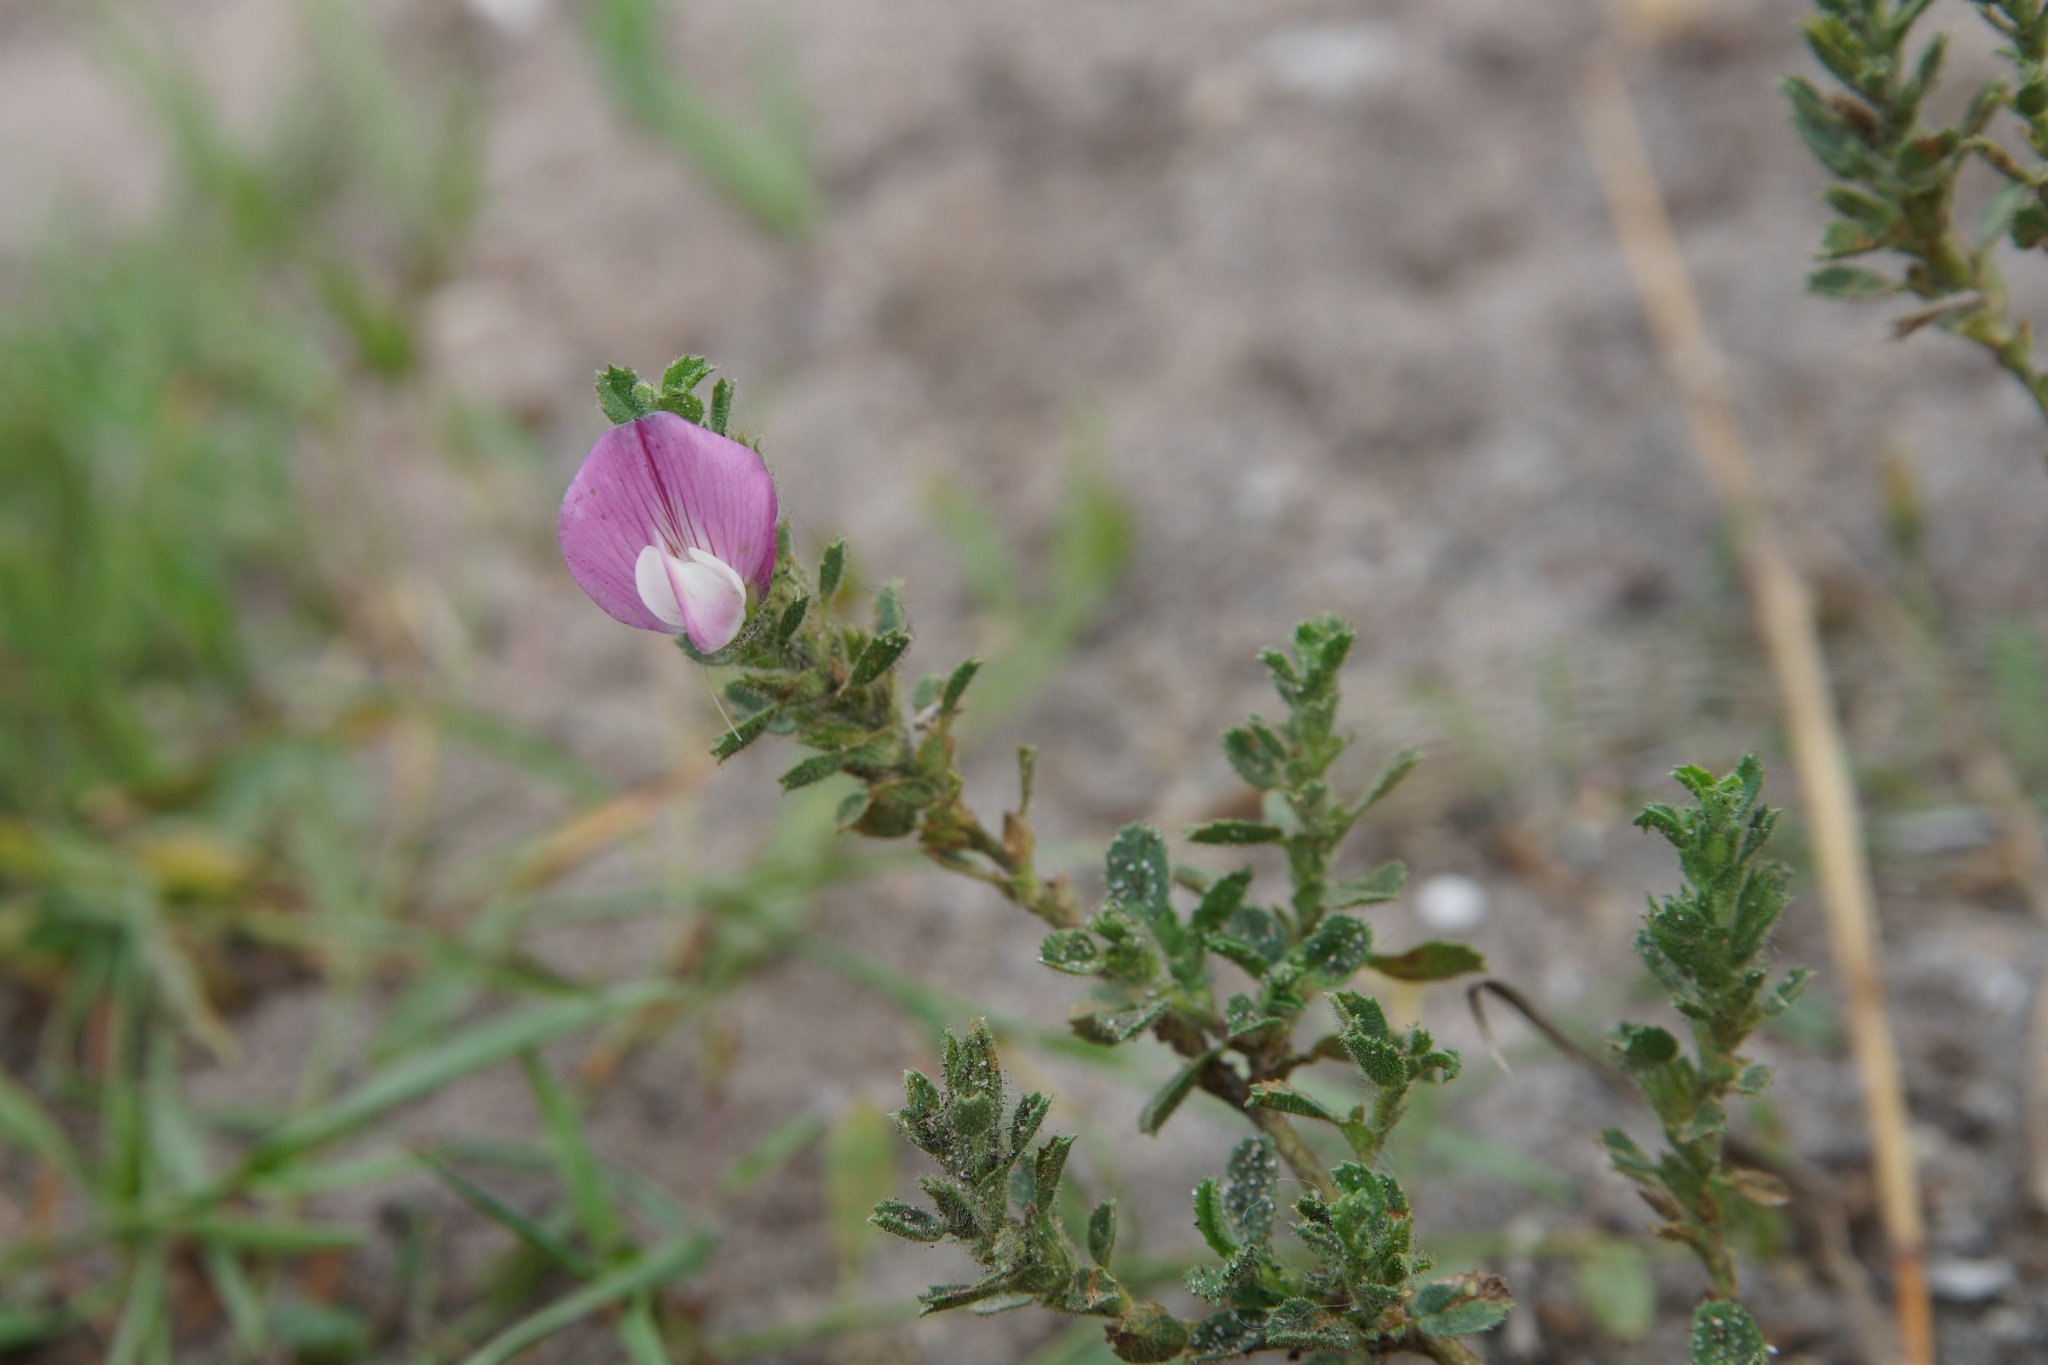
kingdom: Plantae
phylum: Tracheophyta
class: Magnoliopsida
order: Fabales
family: Fabaceae
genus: Ononis
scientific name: Ononis spinosa
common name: Spiny restharrow
